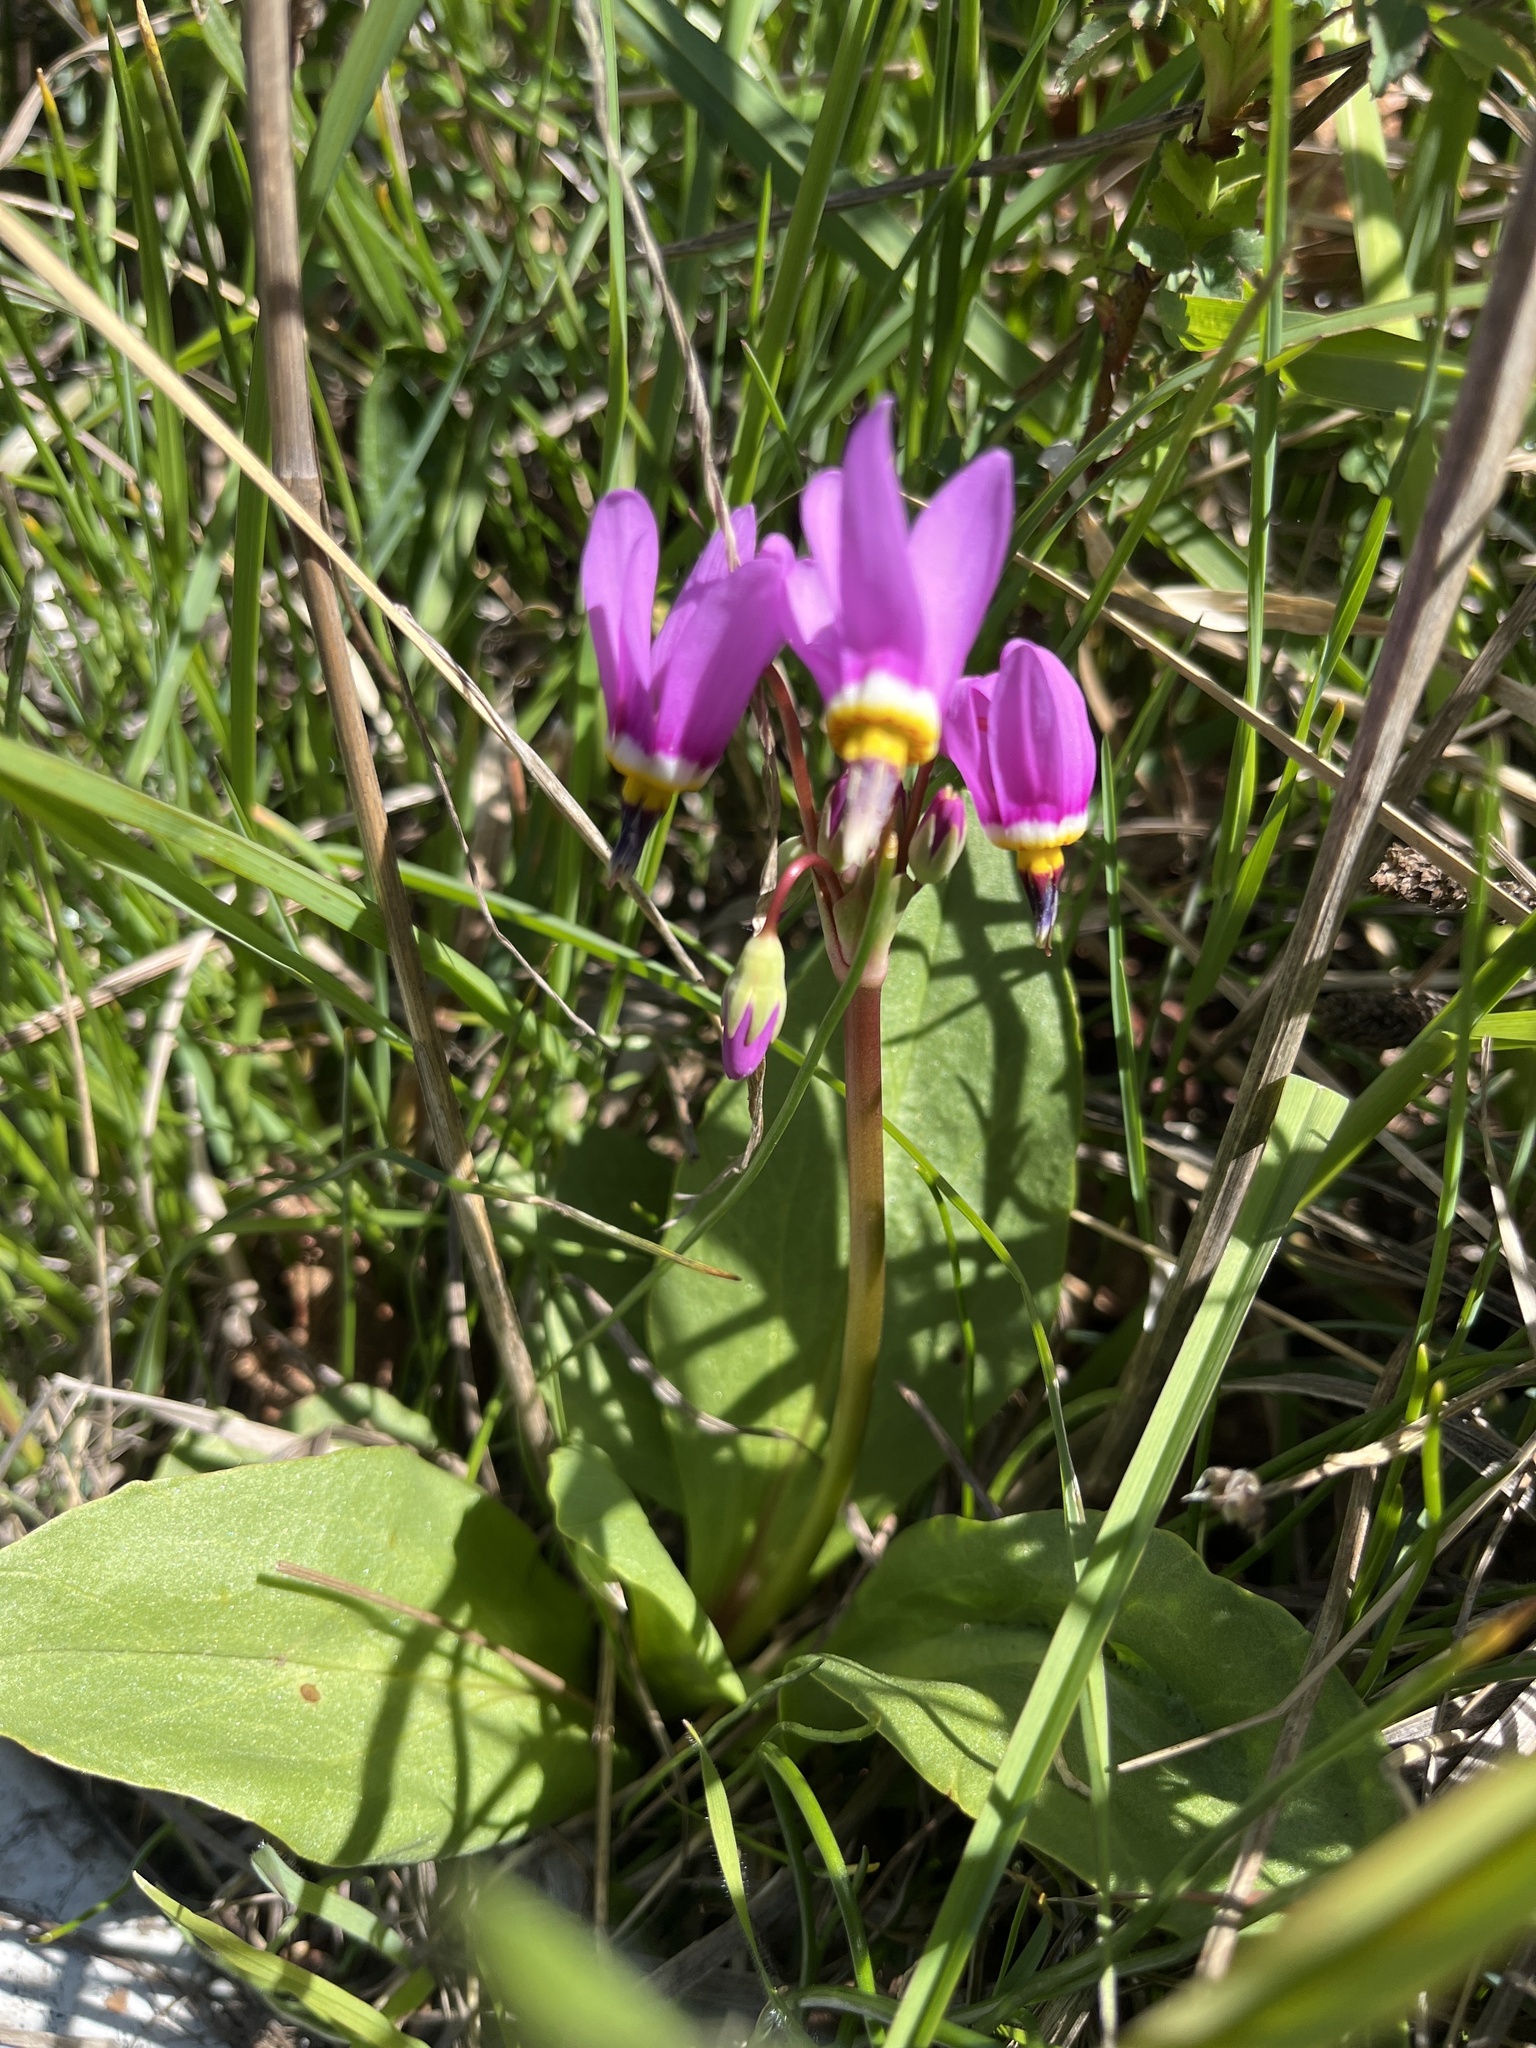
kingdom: Plantae
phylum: Tracheophyta
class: Magnoliopsida
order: Ericales
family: Primulaceae
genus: Dodecatheon
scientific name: Dodecatheon hendersonii
